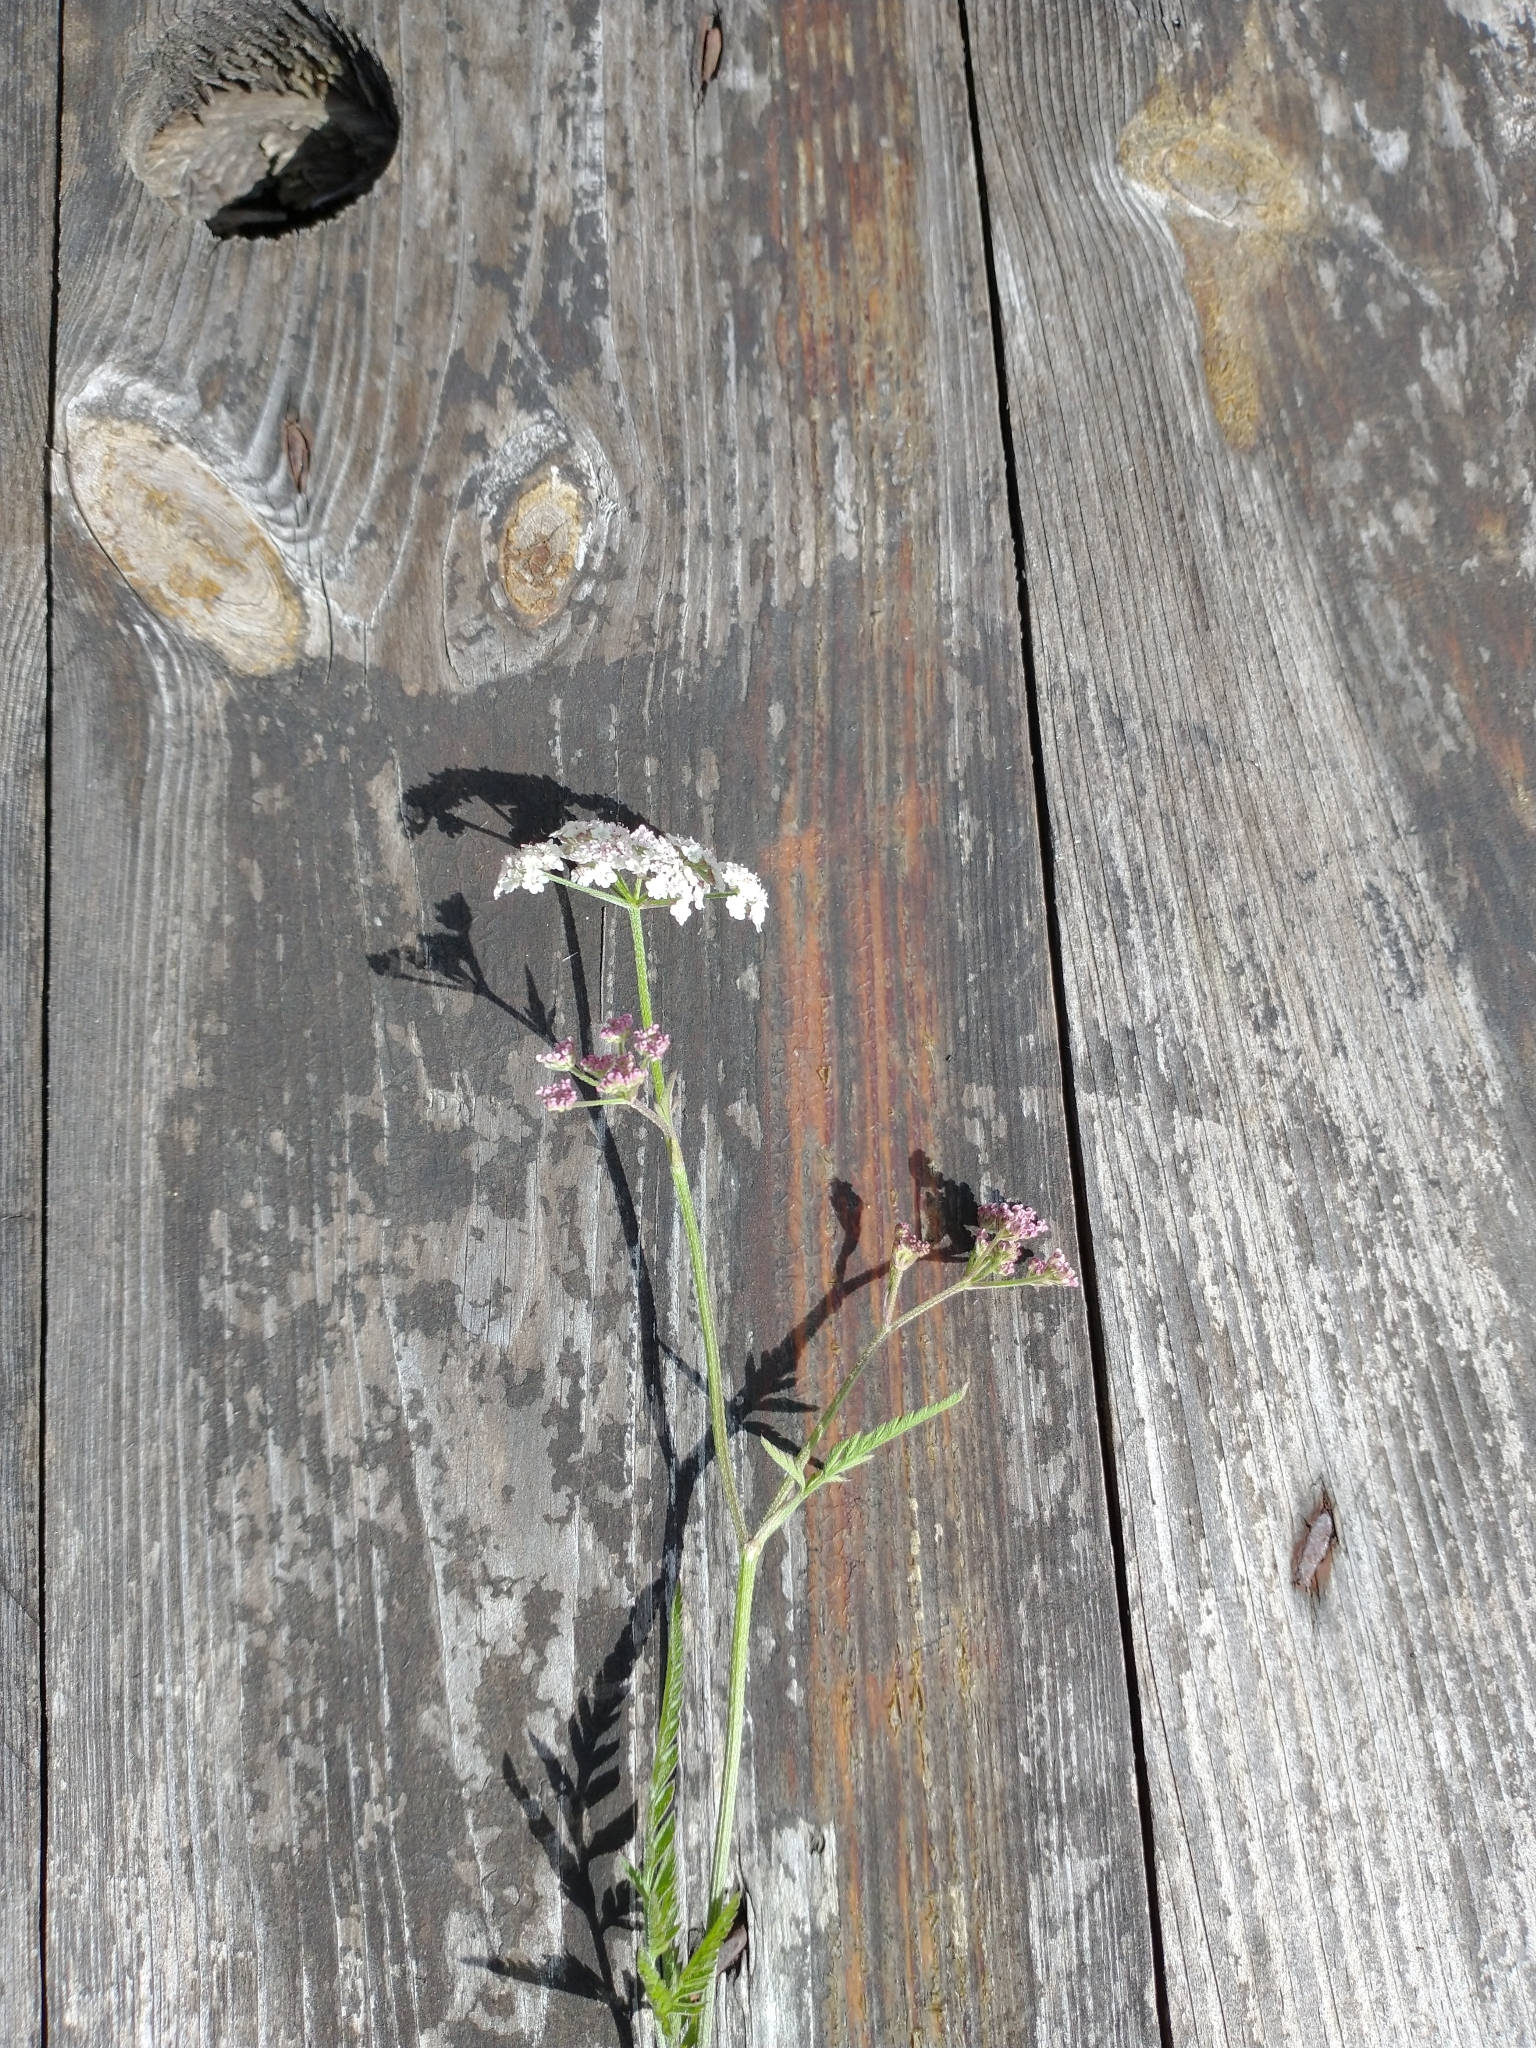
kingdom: Plantae
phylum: Tracheophyta
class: Magnoliopsida
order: Apiales
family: Apiaceae
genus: Torilis
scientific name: Torilis japonica
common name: Upright hedge-parsley
